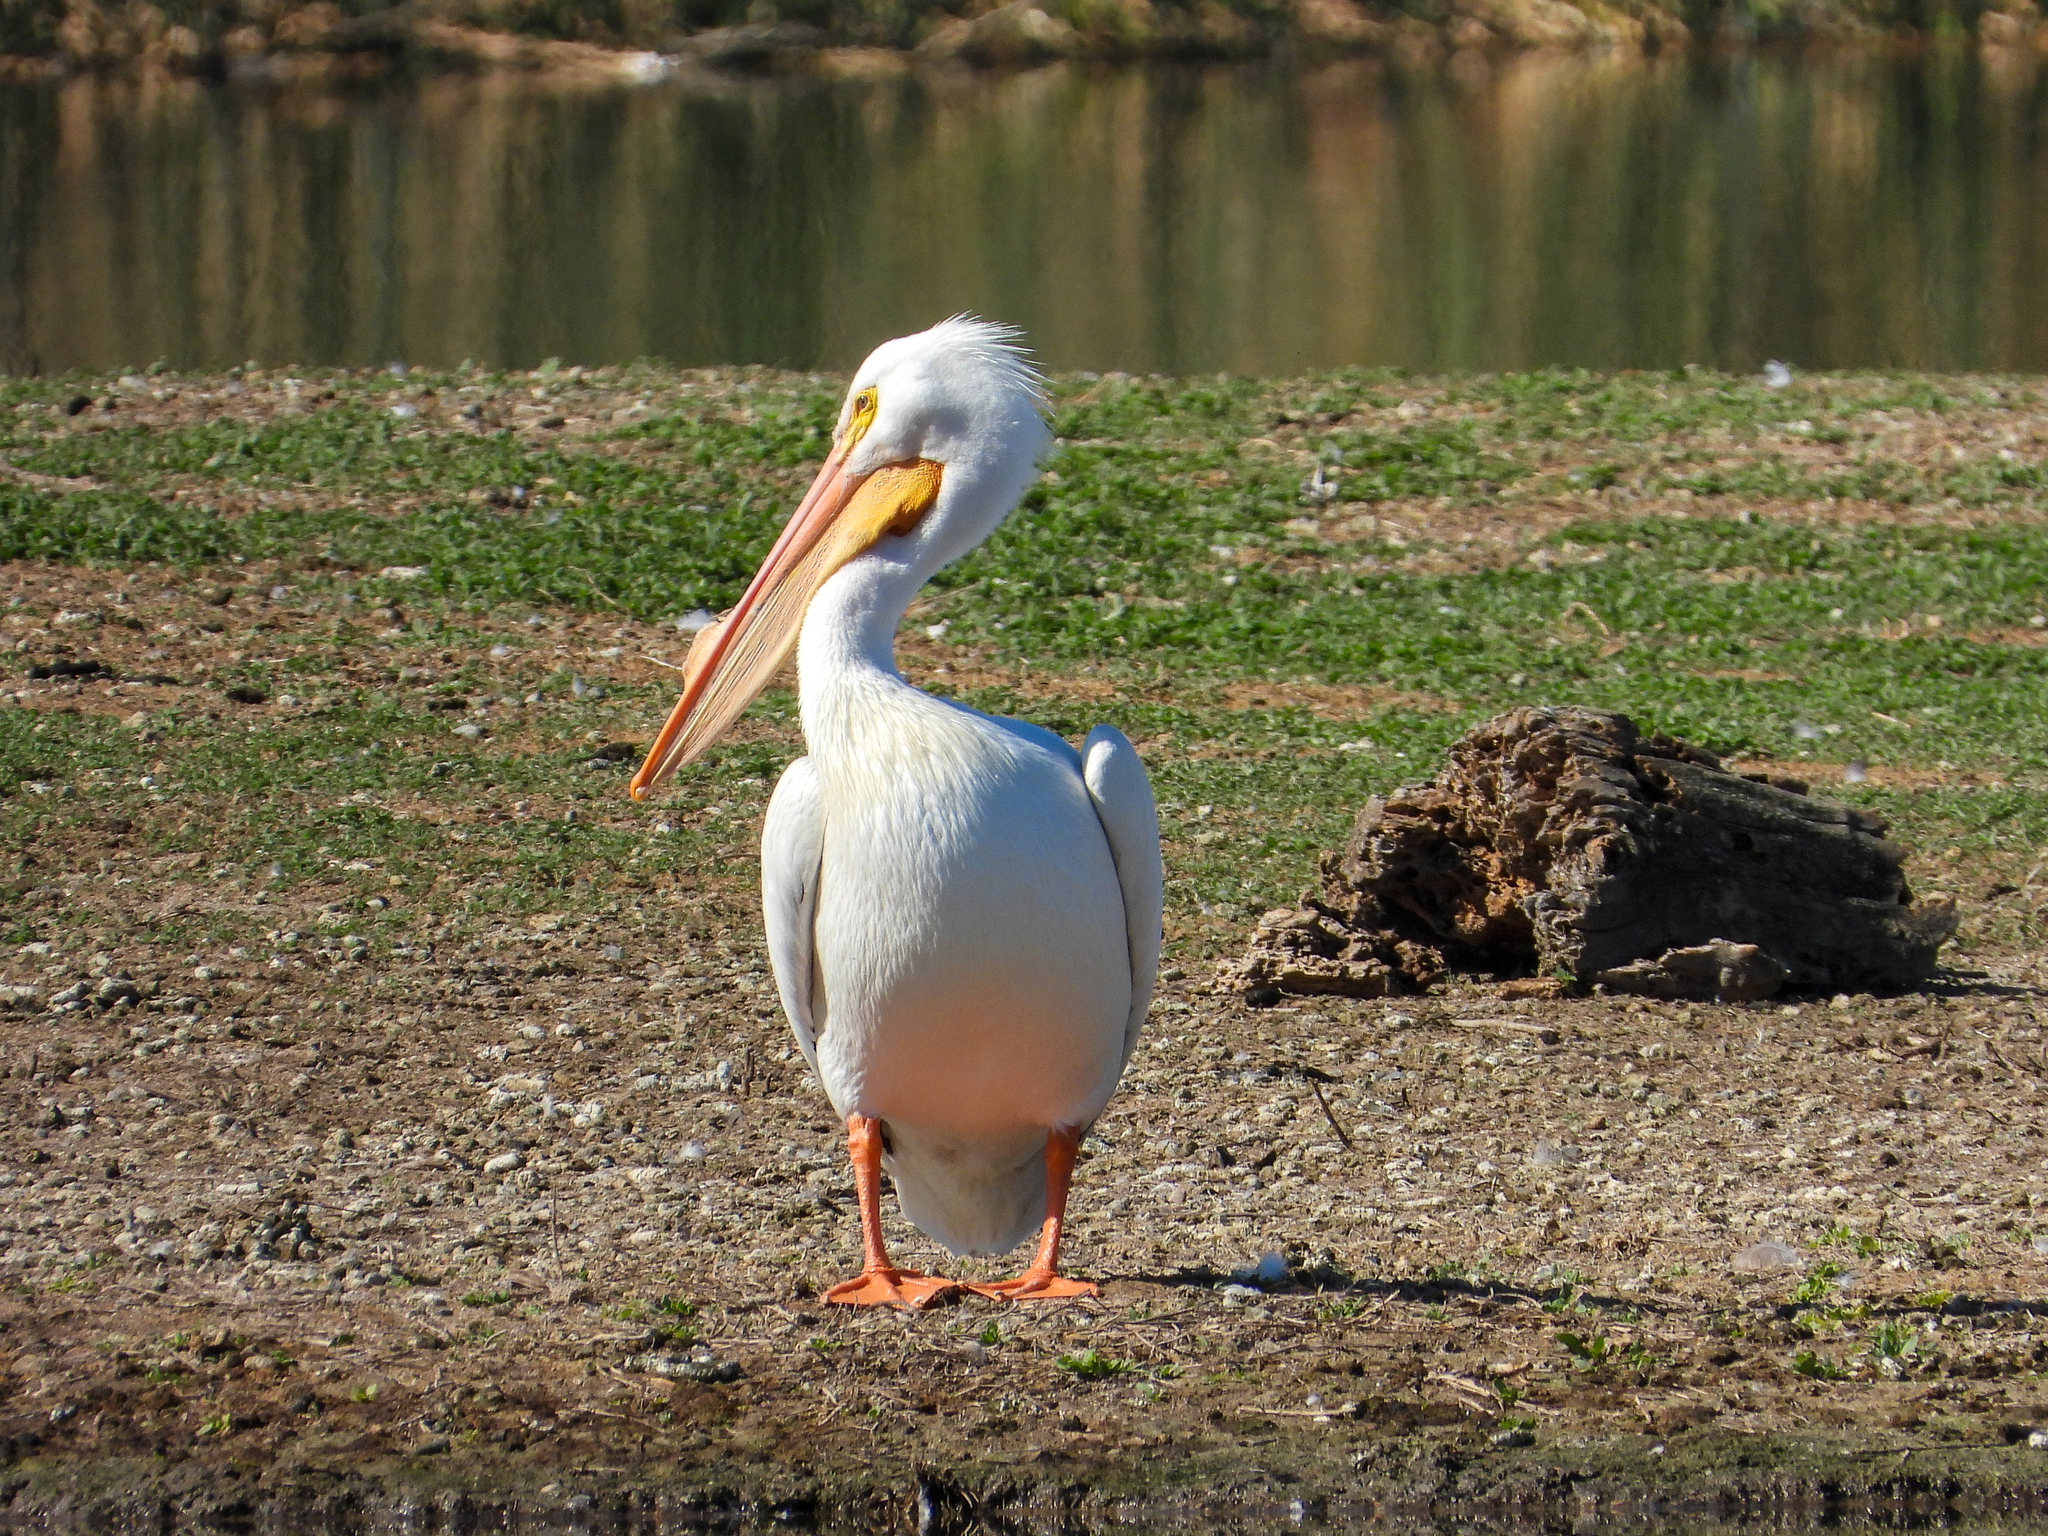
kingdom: Animalia
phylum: Chordata
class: Aves
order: Pelecaniformes
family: Pelecanidae
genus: Pelecanus
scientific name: Pelecanus erythrorhynchos
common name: American white pelican
